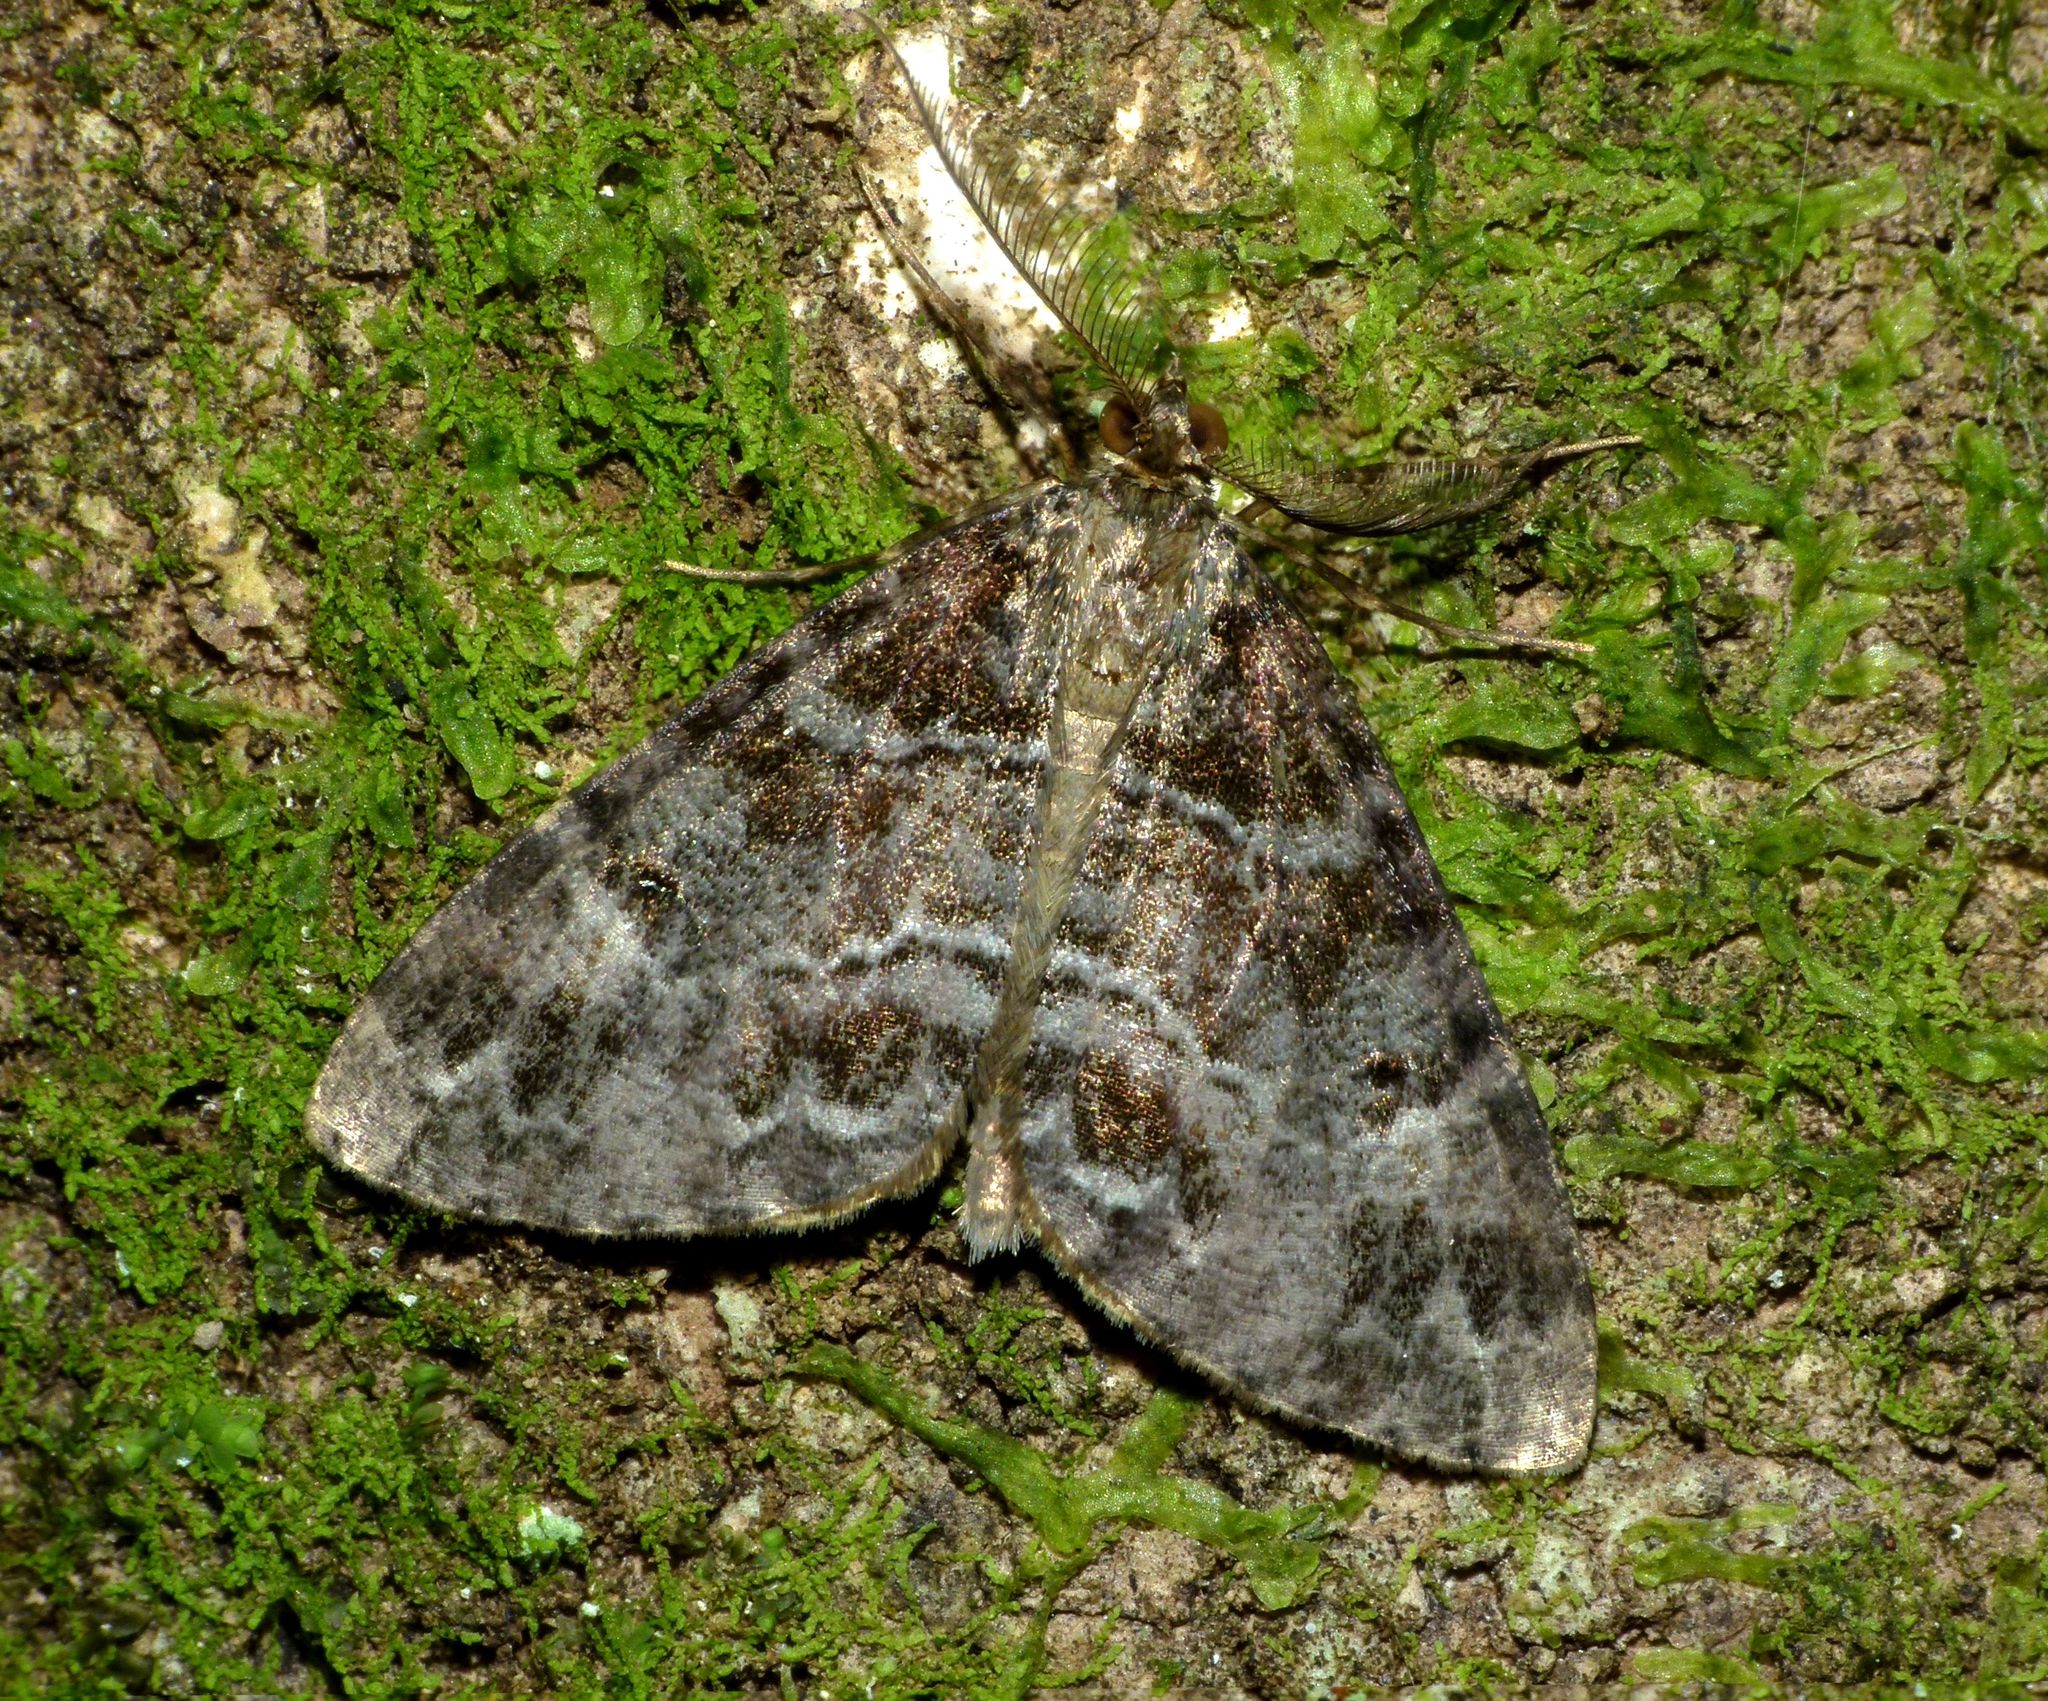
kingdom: Animalia
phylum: Arthropoda
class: Insecta
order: Lepidoptera
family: Geometridae
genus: Pseudocoremia
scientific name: Pseudocoremia productata
